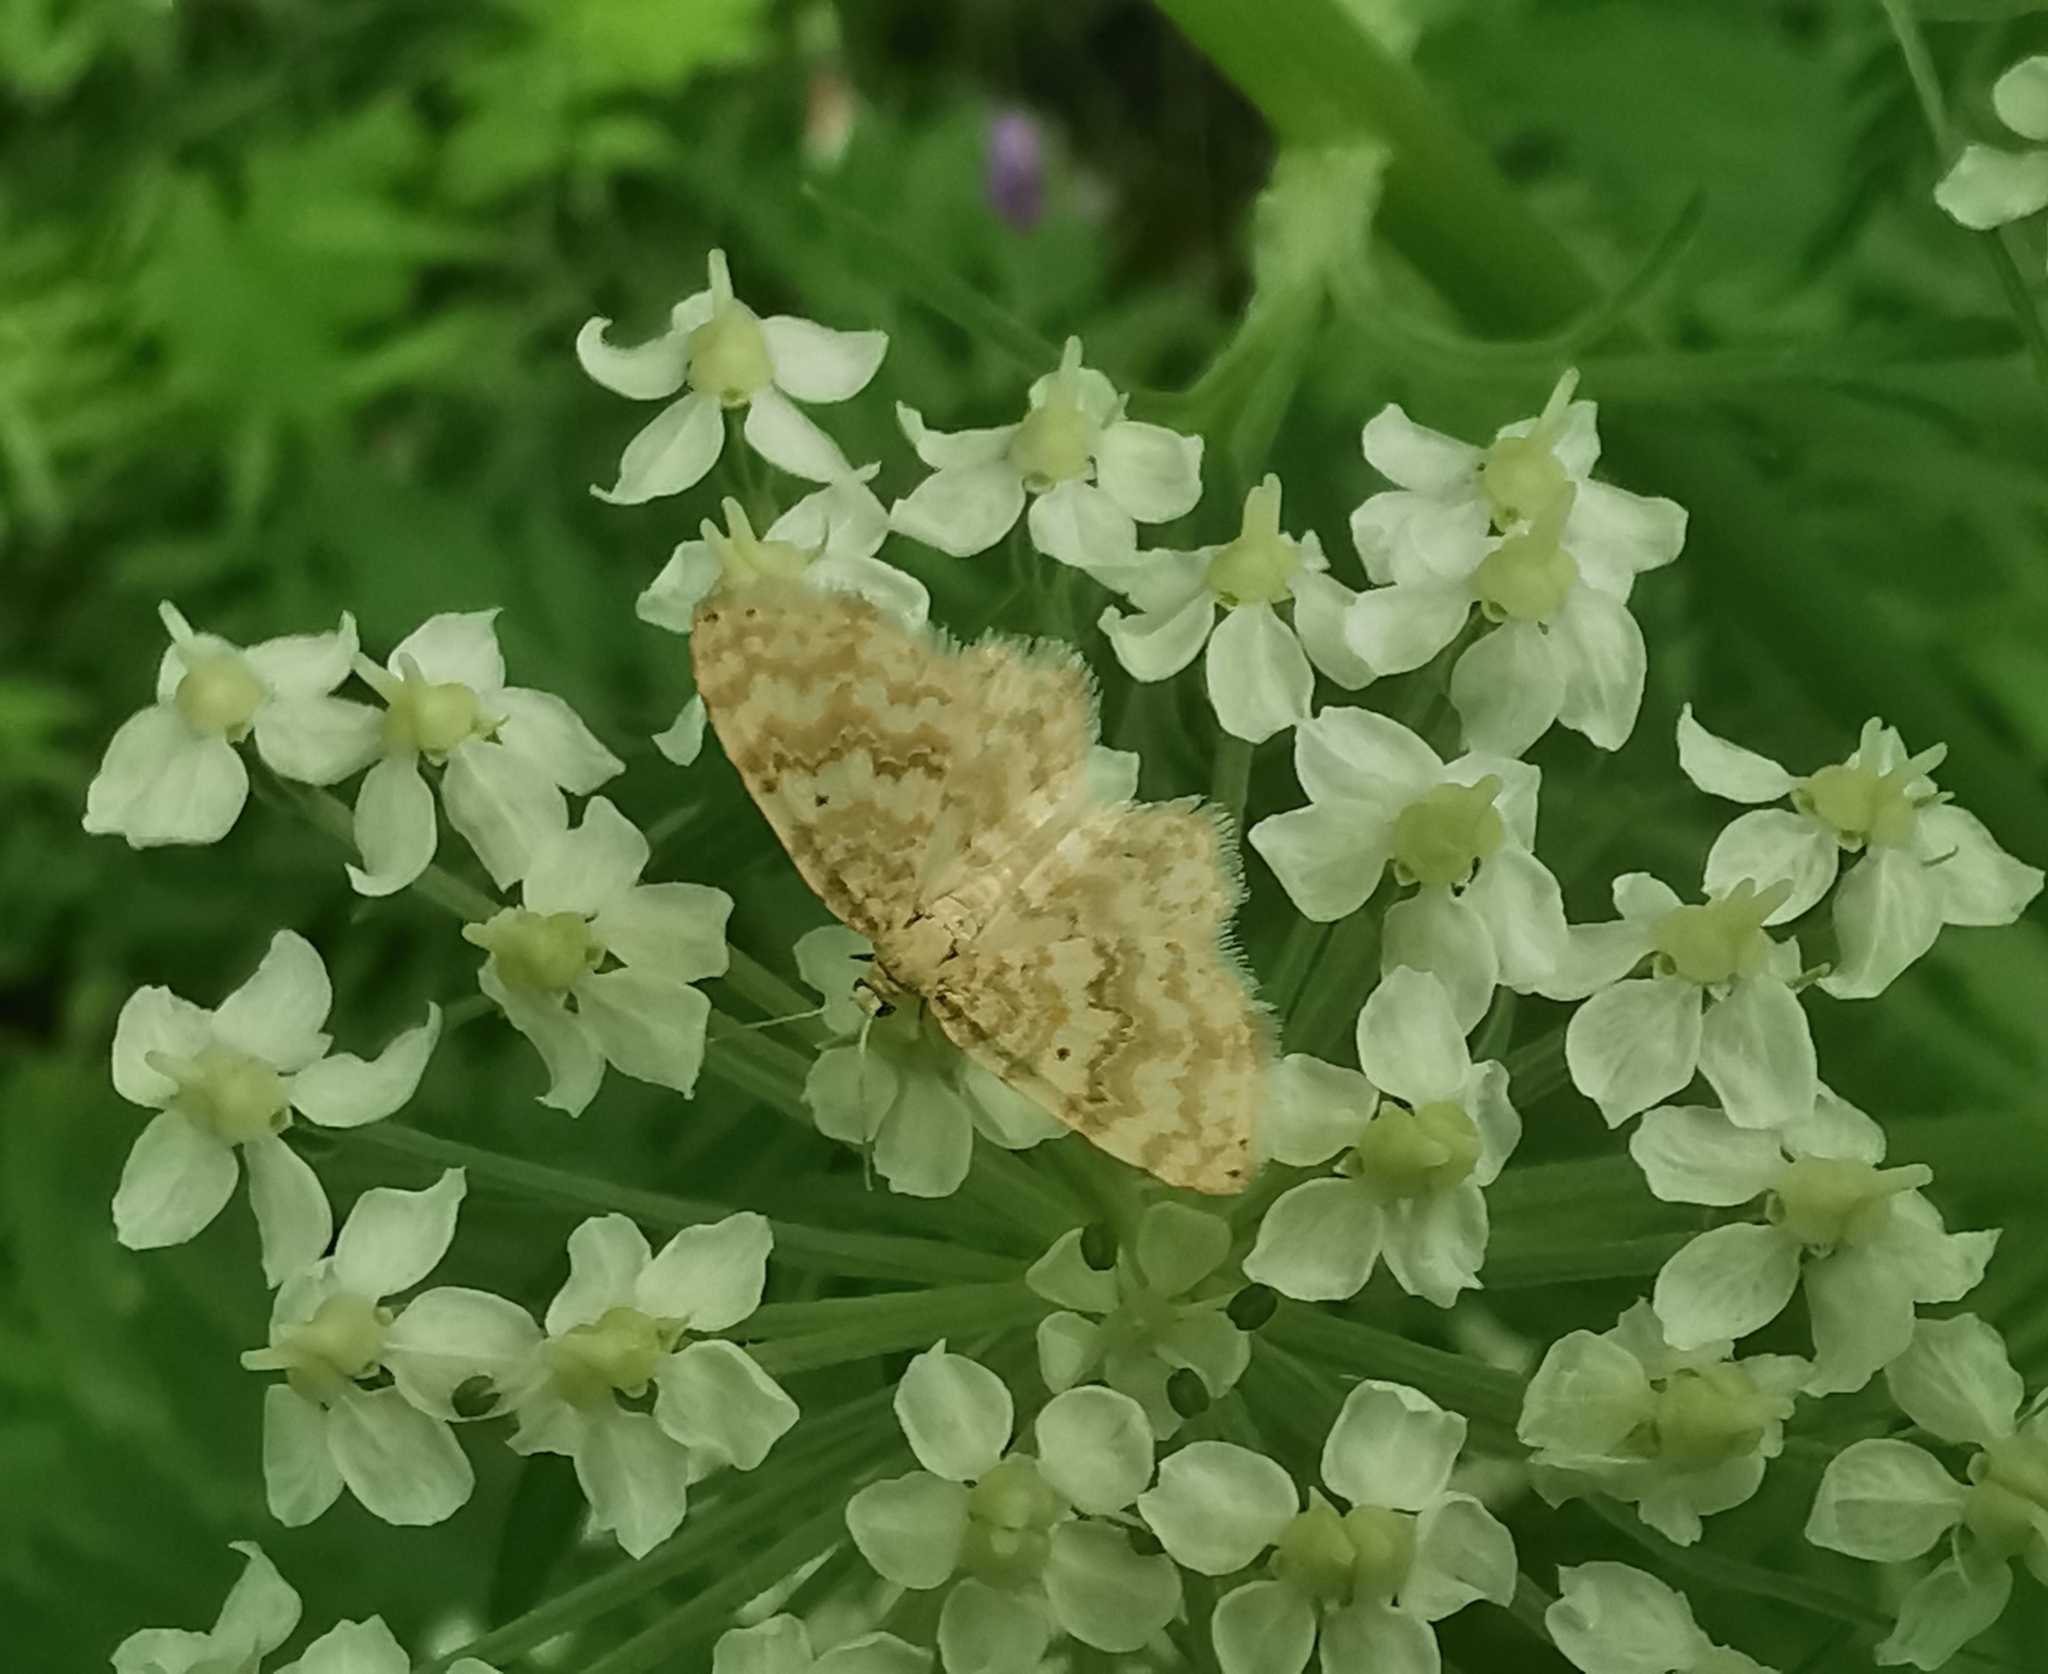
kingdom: Animalia
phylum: Arthropoda
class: Insecta
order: Lepidoptera
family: Geometridae
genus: Hydrelia
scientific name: Hydrelia flammeolaria
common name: Small yellow wave
